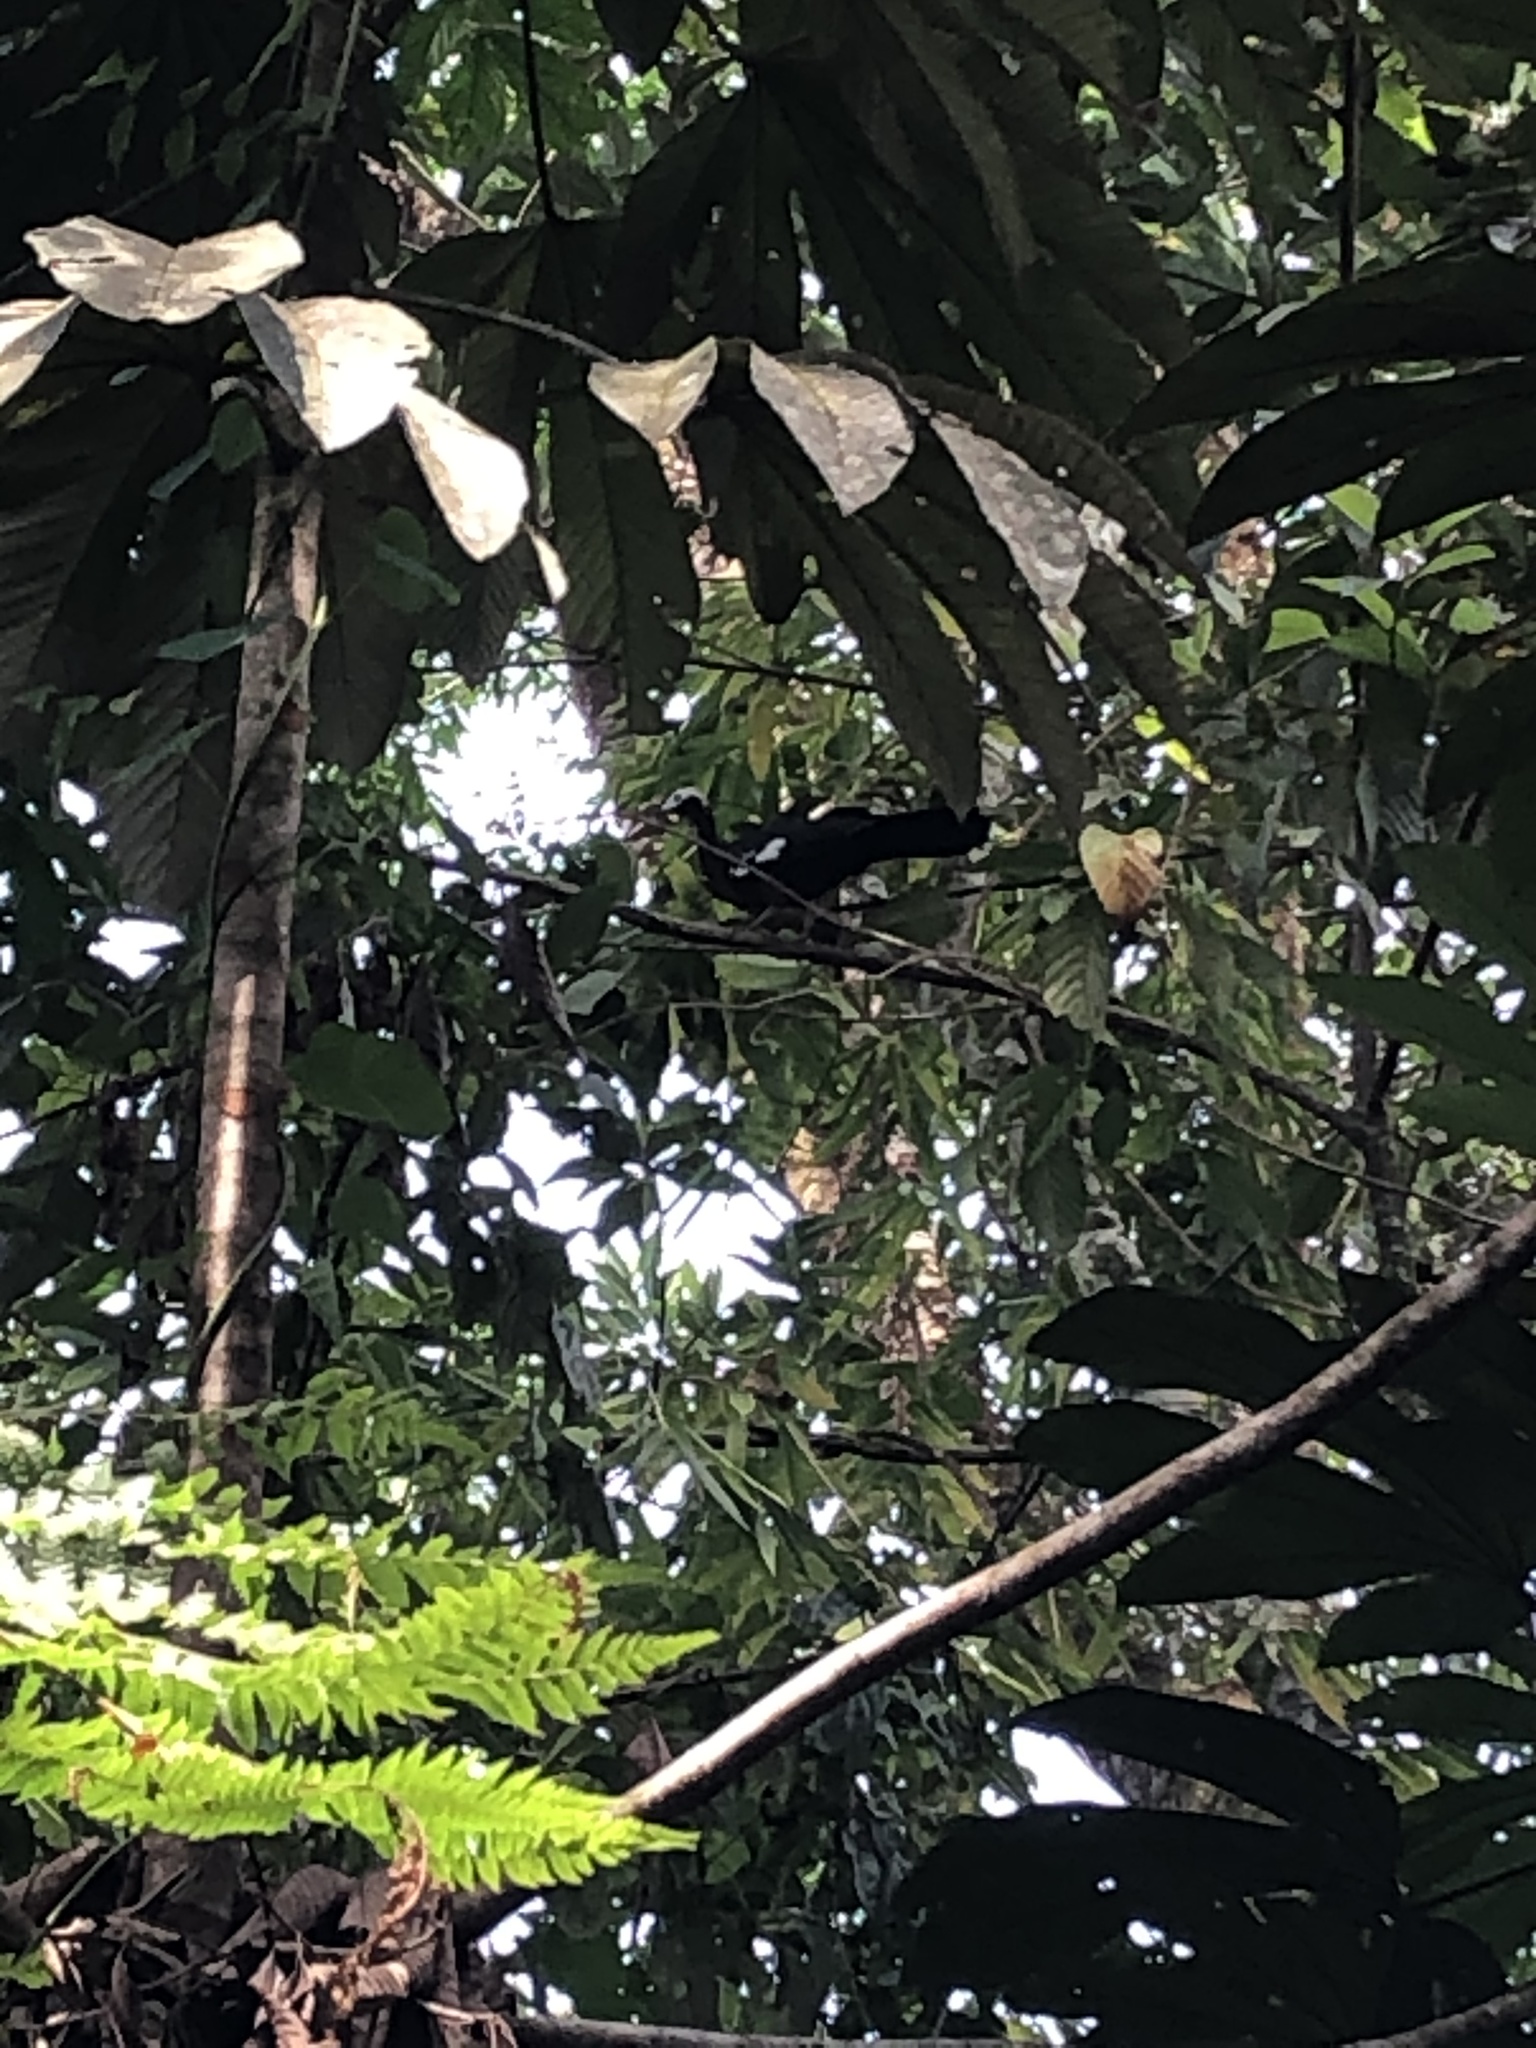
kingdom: Animalia
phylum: Chordata
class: Aves
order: Galliformes
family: Cracidae
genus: Pipile
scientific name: Pipile cumanensis
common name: Blue-throated piping-guan
